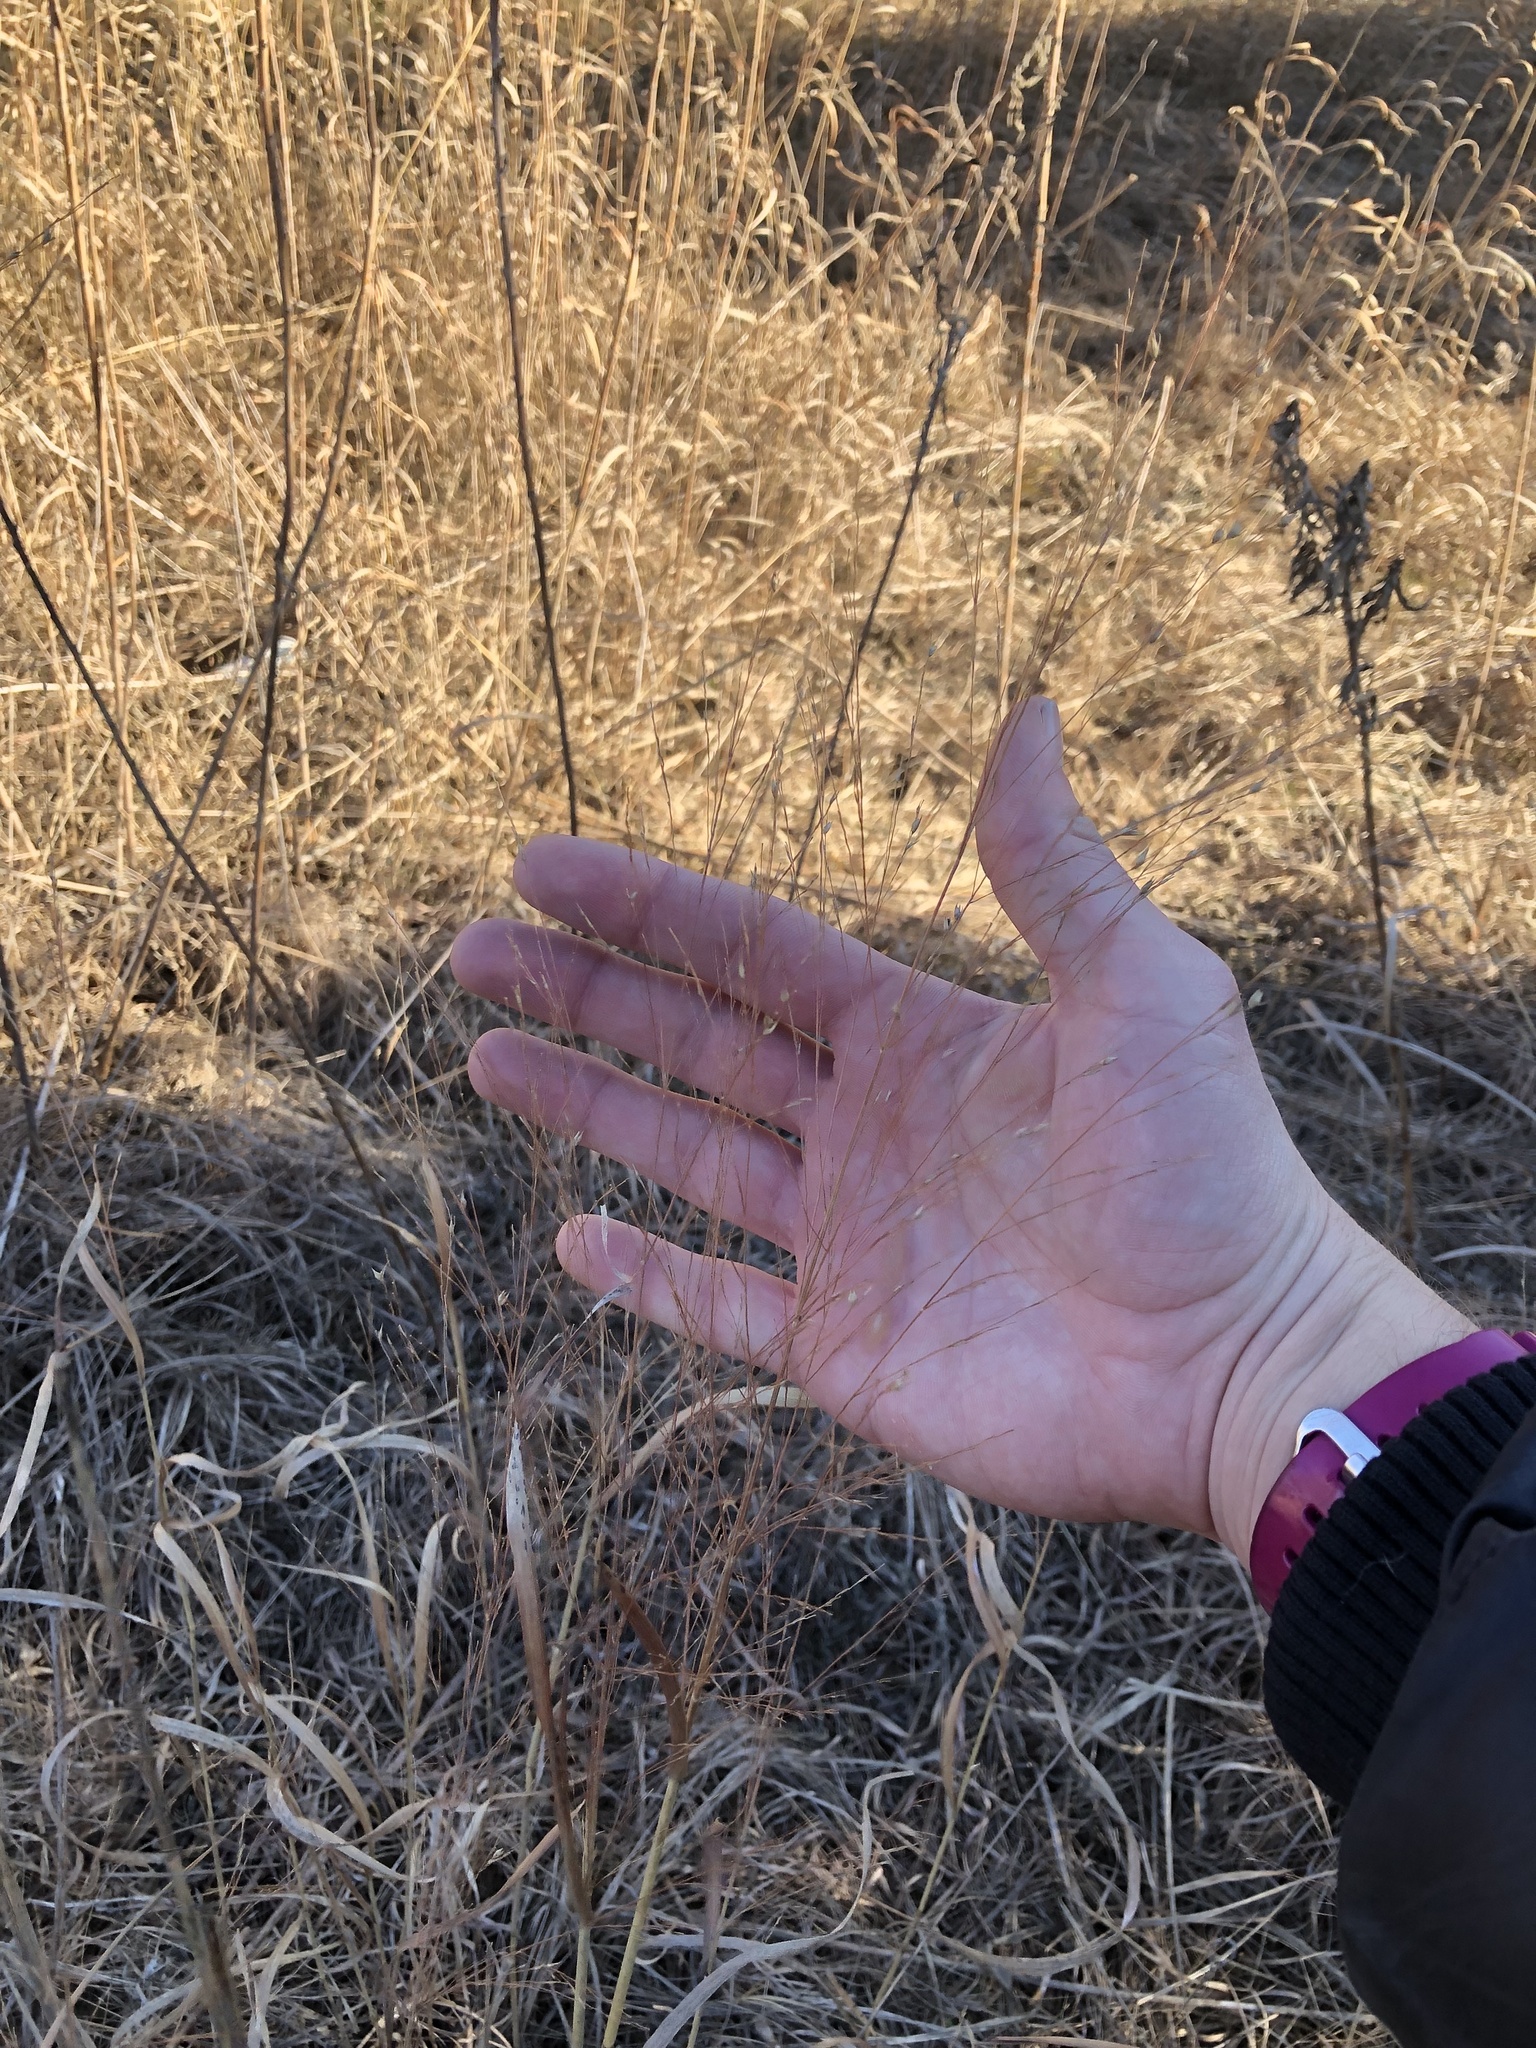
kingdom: Plantae
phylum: Tracheophyta
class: Liliopsida
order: Poales
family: Poaceae
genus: Panicum
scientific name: Panicum virgatum
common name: Switchgrass
